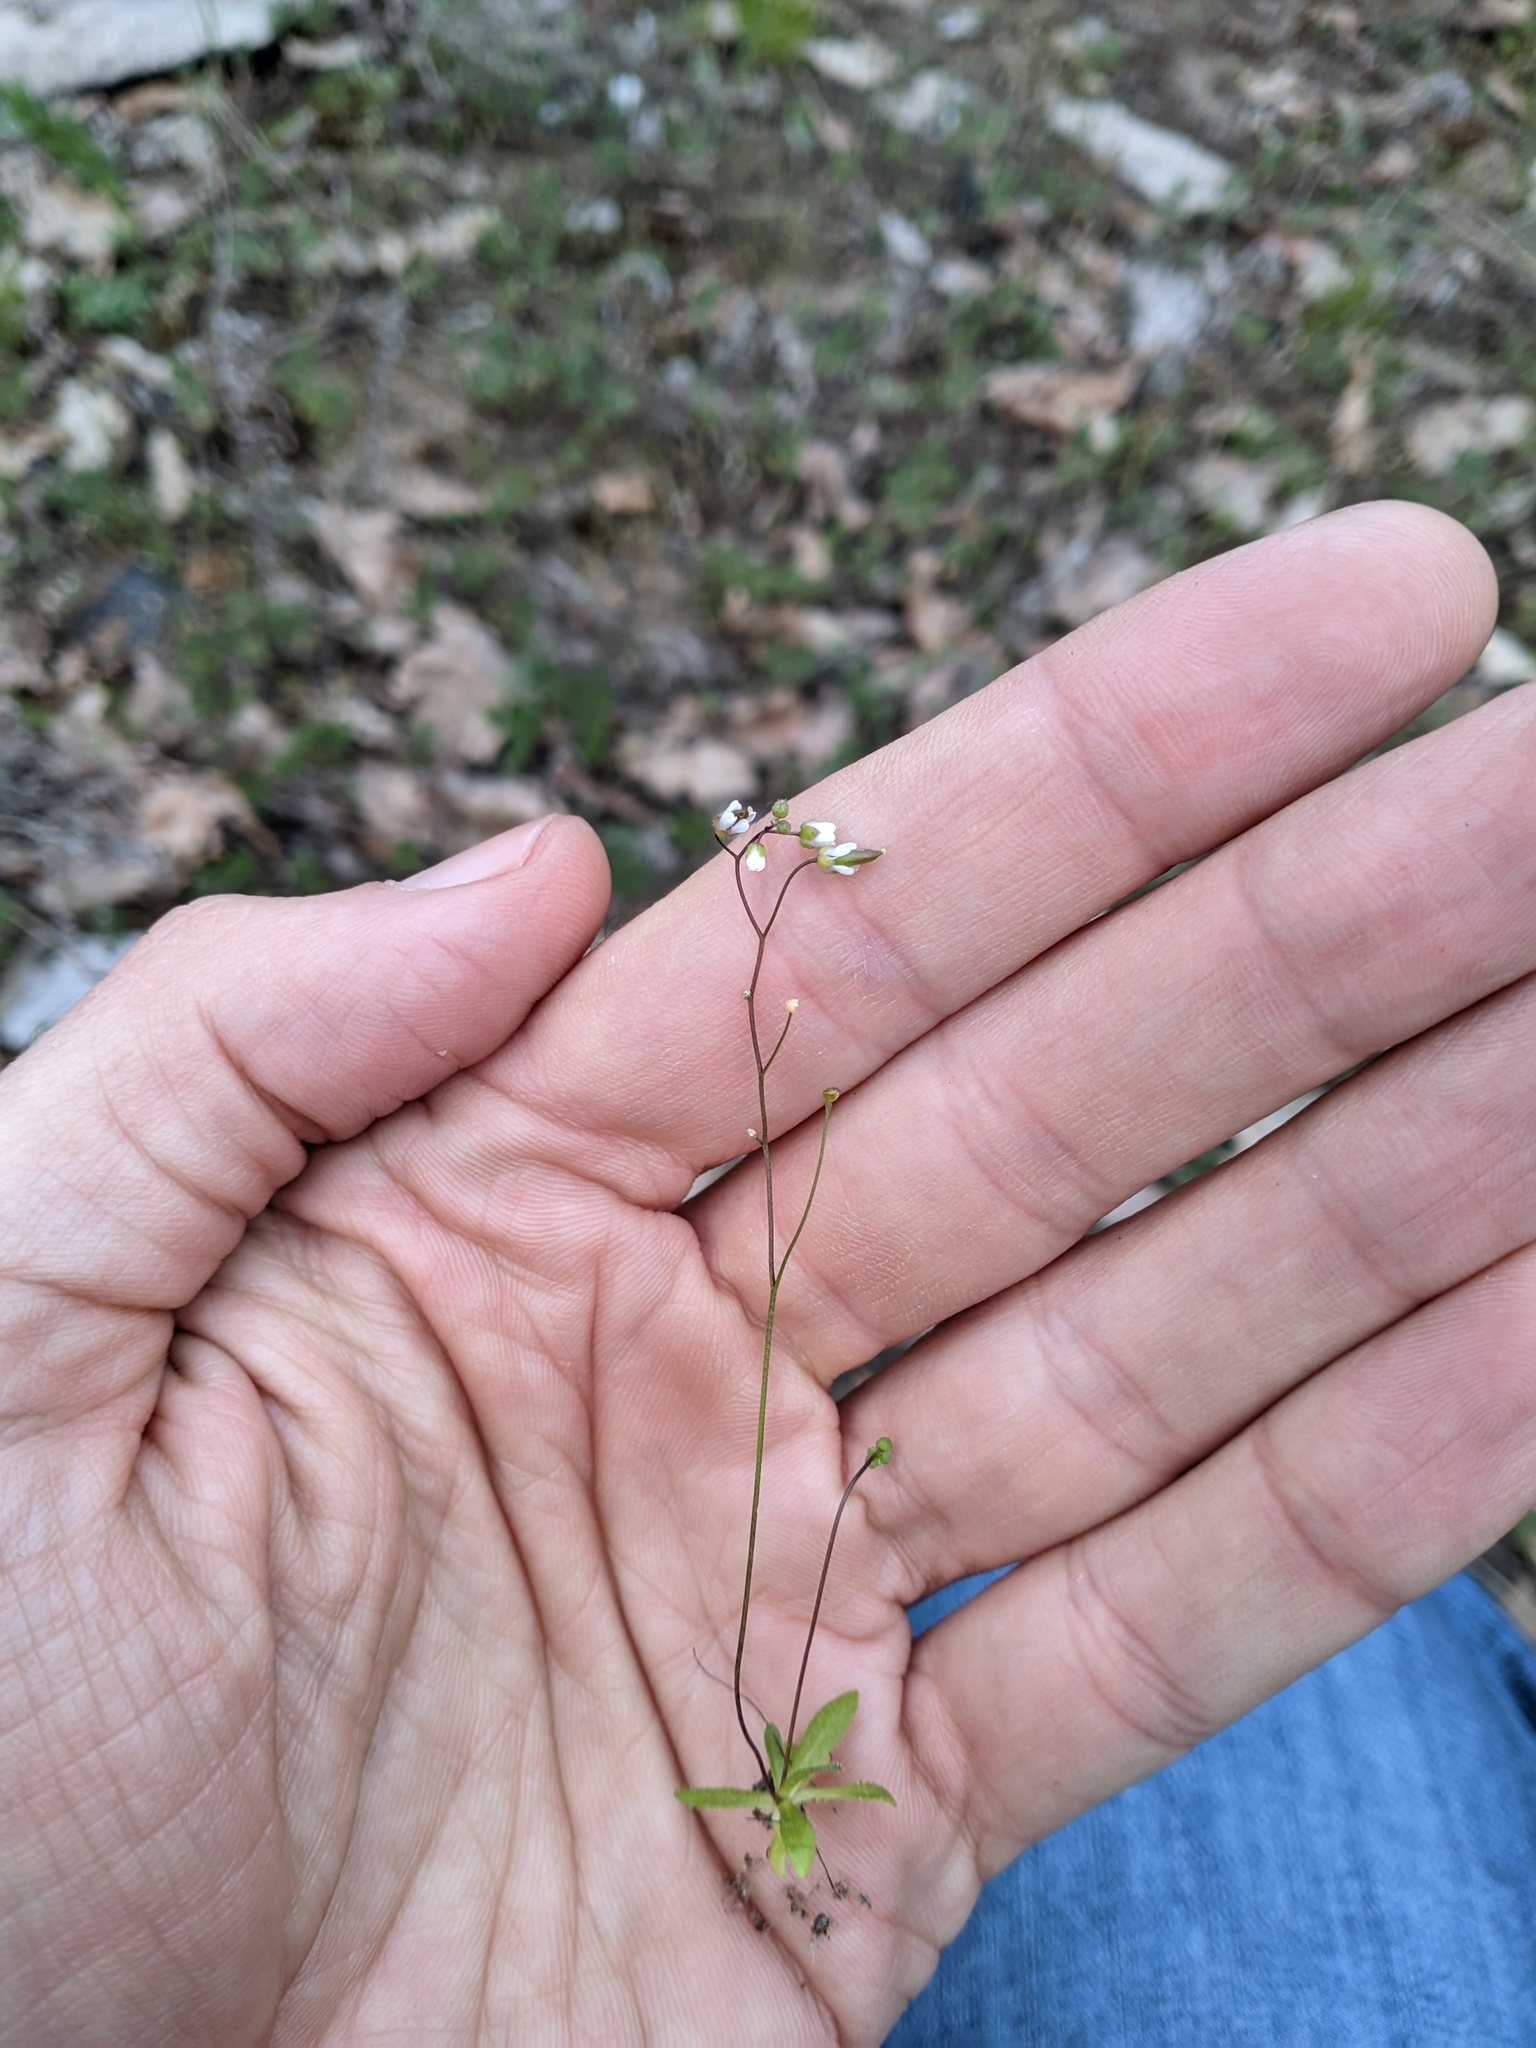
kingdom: Plantae
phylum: Tracheophyta
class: Magnoliopsida
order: Brassicales
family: Brassicaceae
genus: Draba
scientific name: Draba verna
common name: Spring draba
